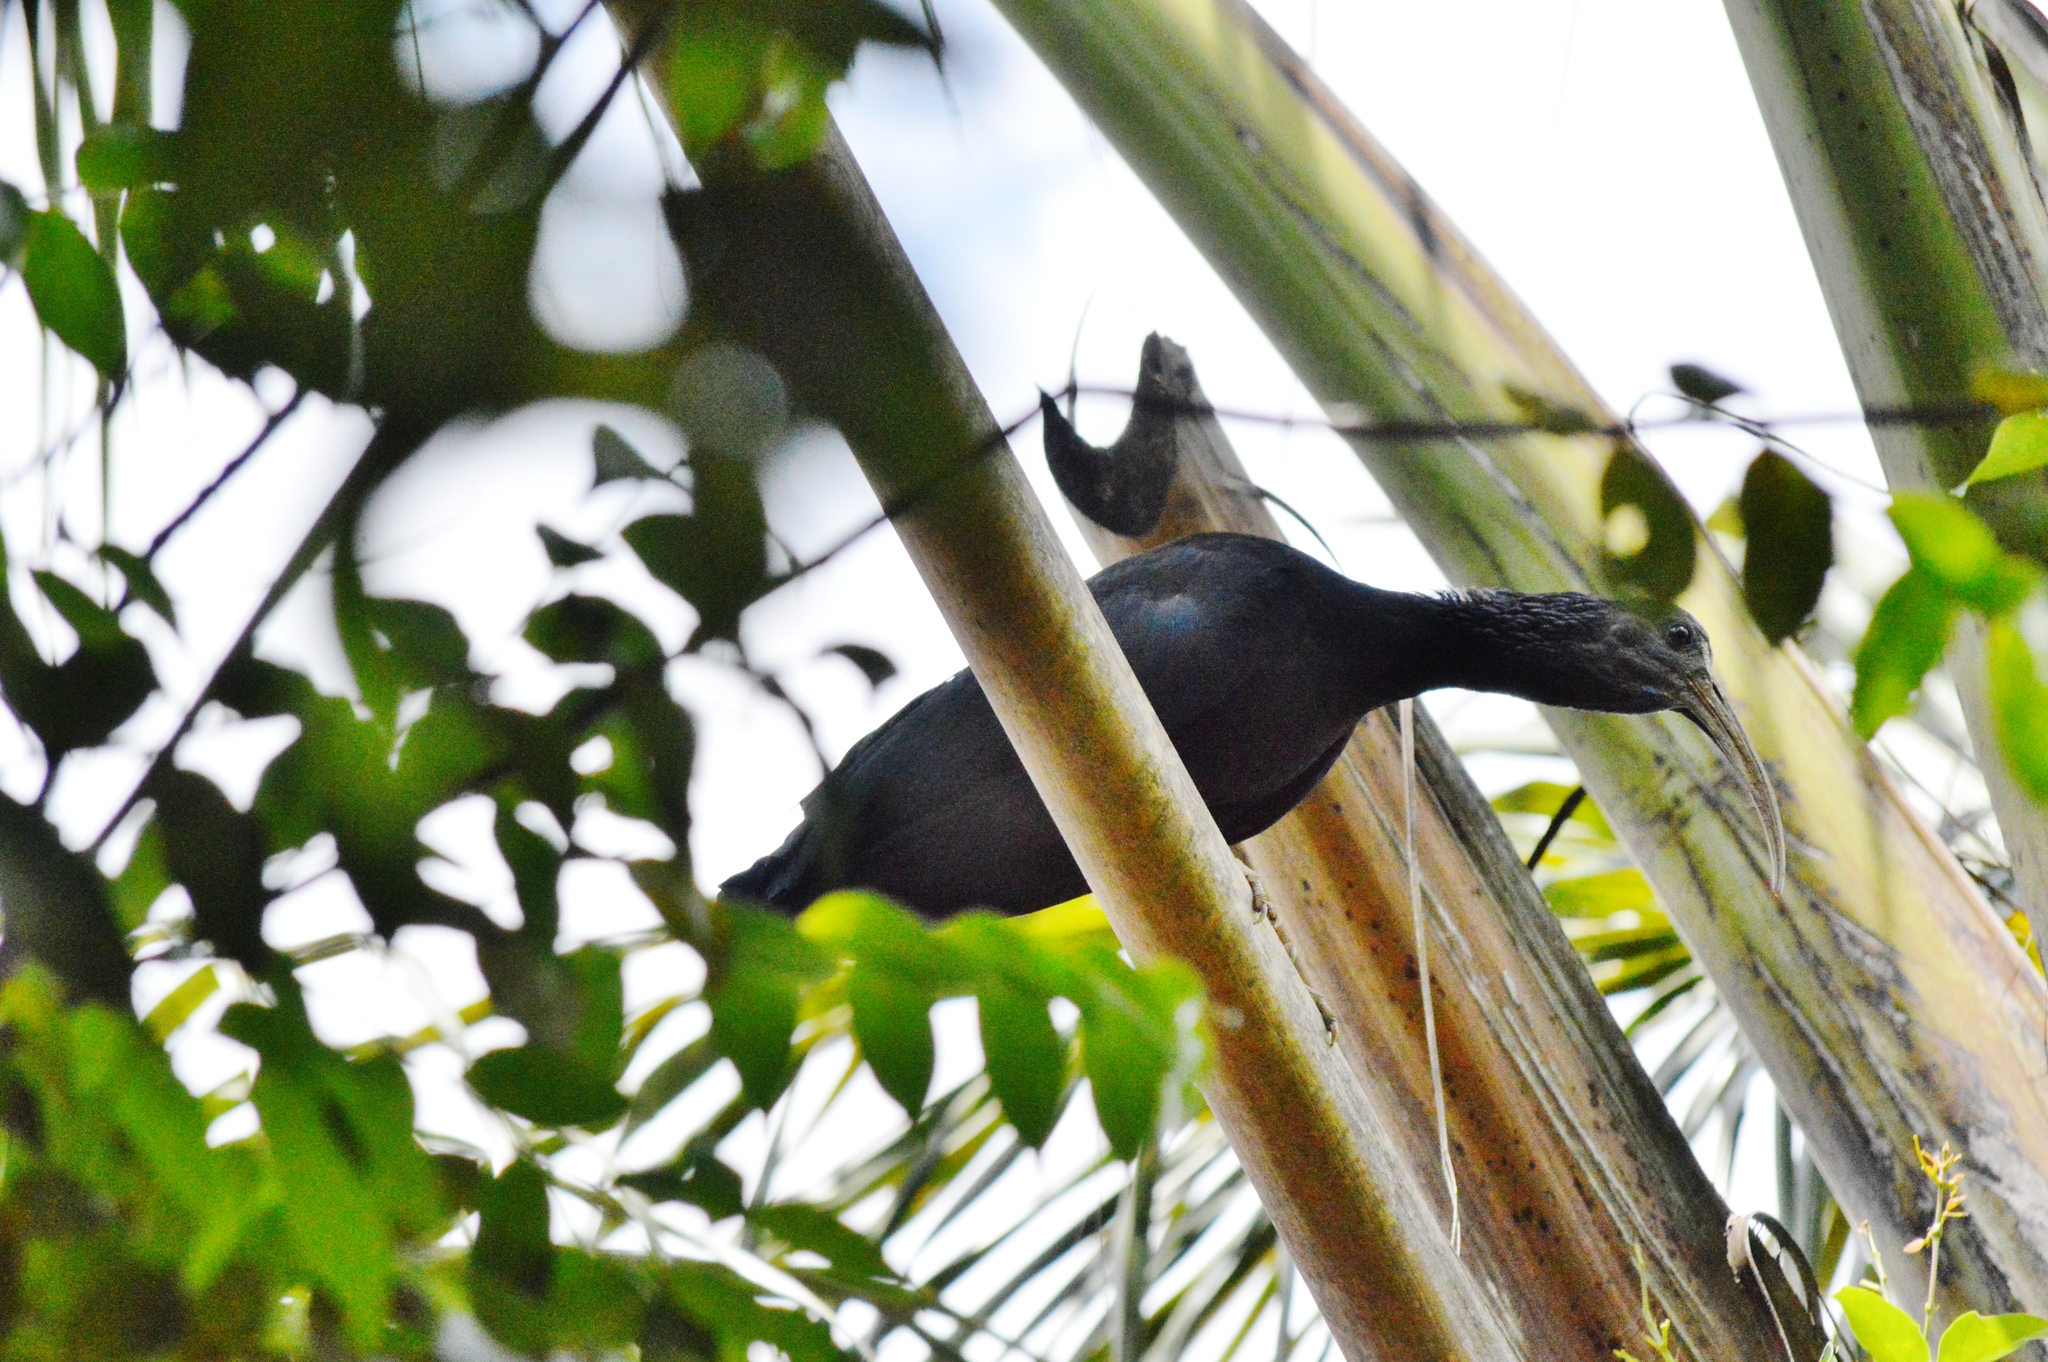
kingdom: Animalia
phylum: Chordata
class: Aves
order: Pelecaniformes
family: Threskiornithidae
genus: Mesembrinibis
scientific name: Mesembrinibis cayennensis
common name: Green ibis
